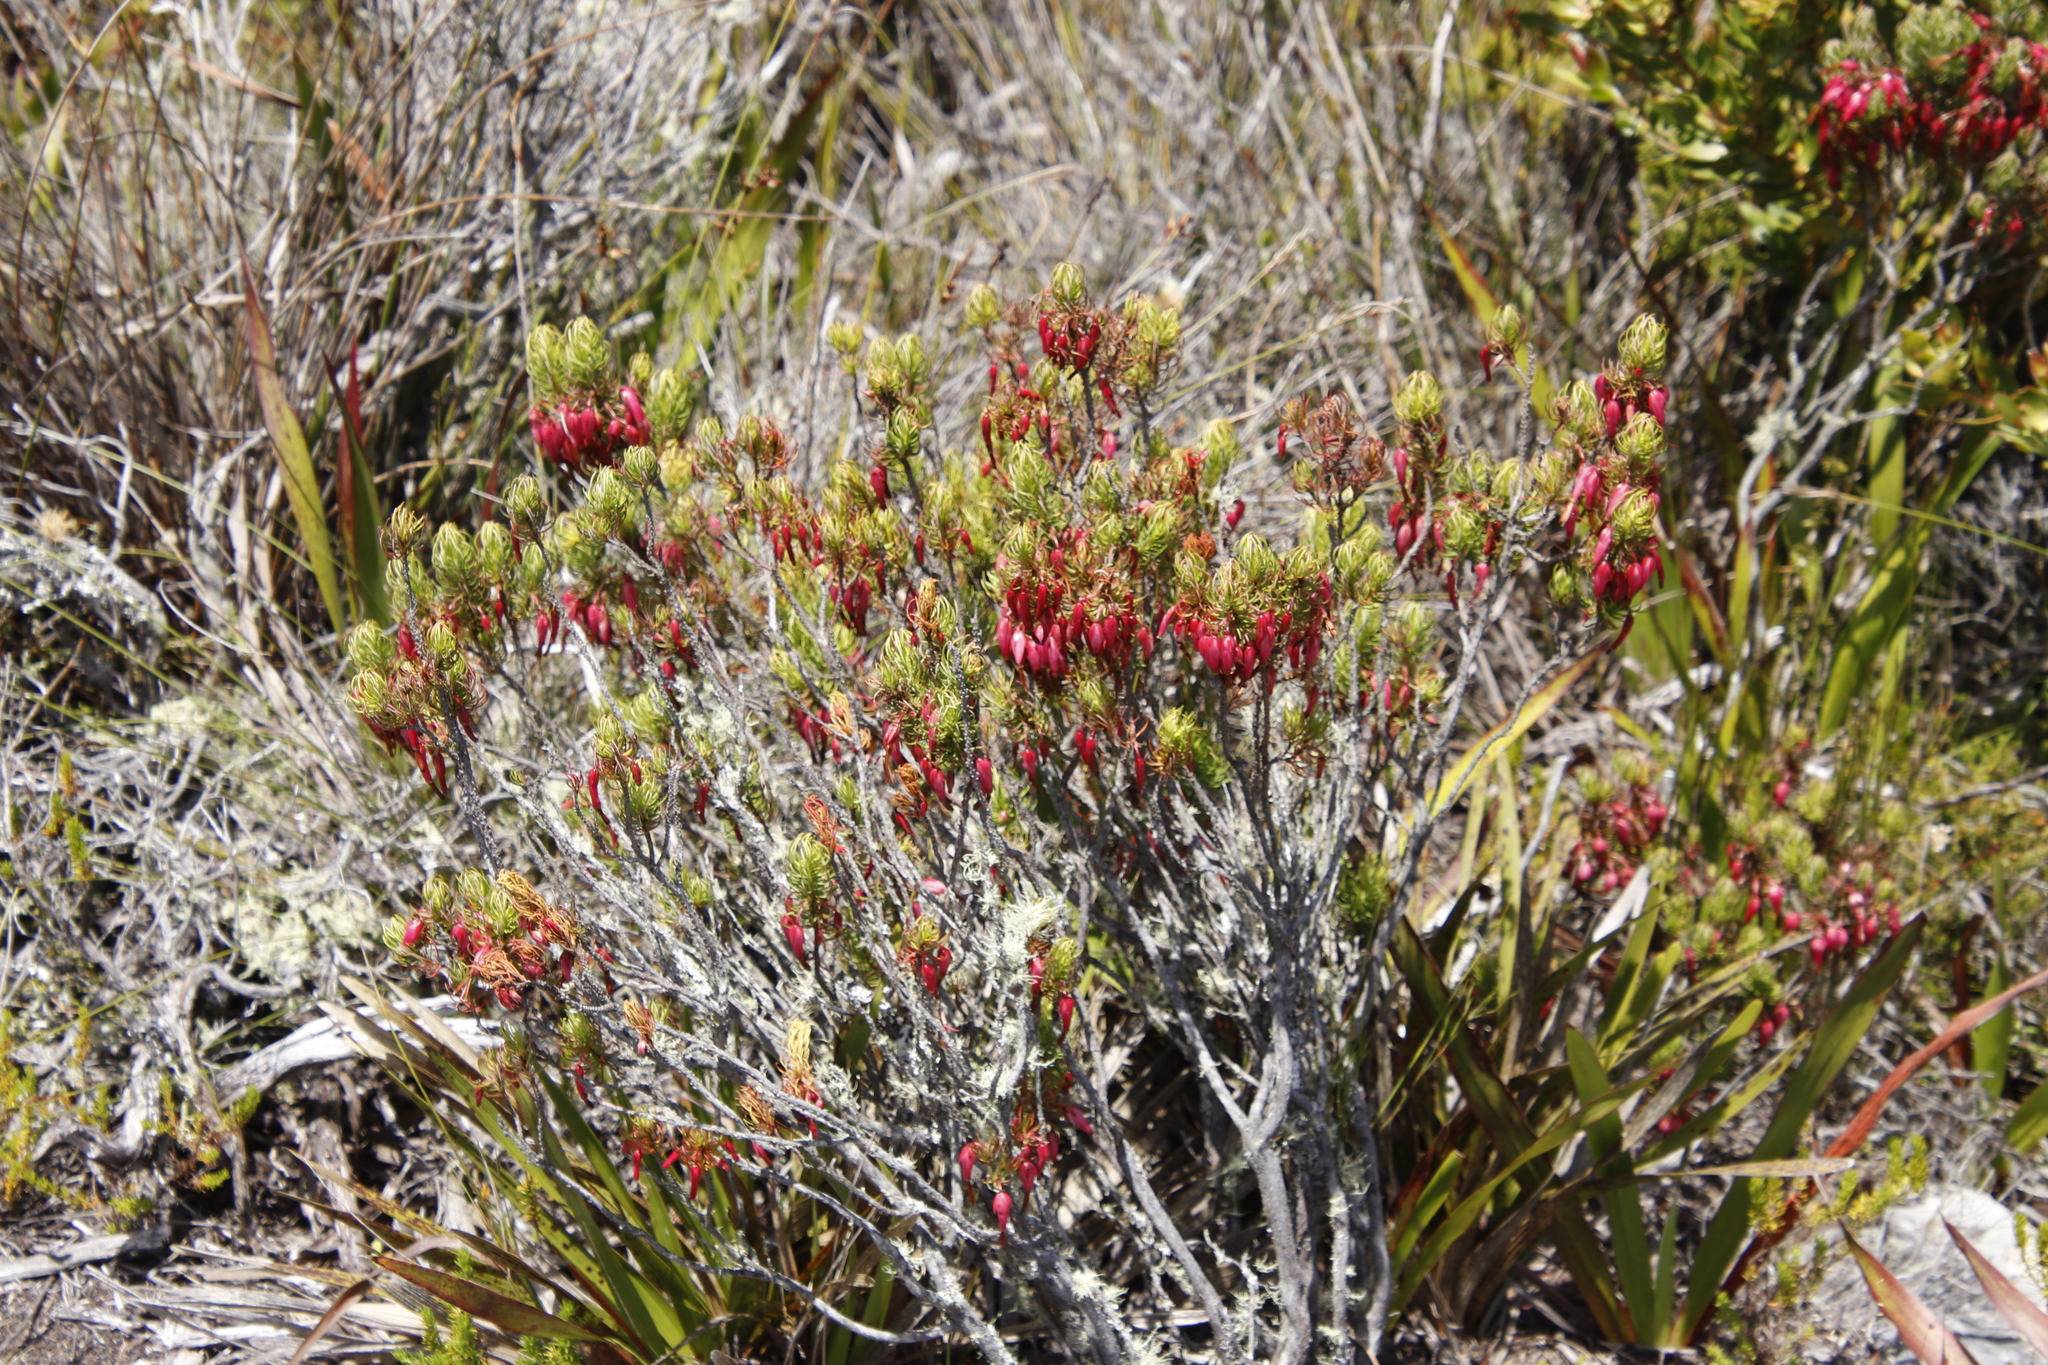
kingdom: Plantae
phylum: Tracheophyta
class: Magnoliopsida
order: Ericales
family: Ericaceae
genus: Erica
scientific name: Erica plukenetii
